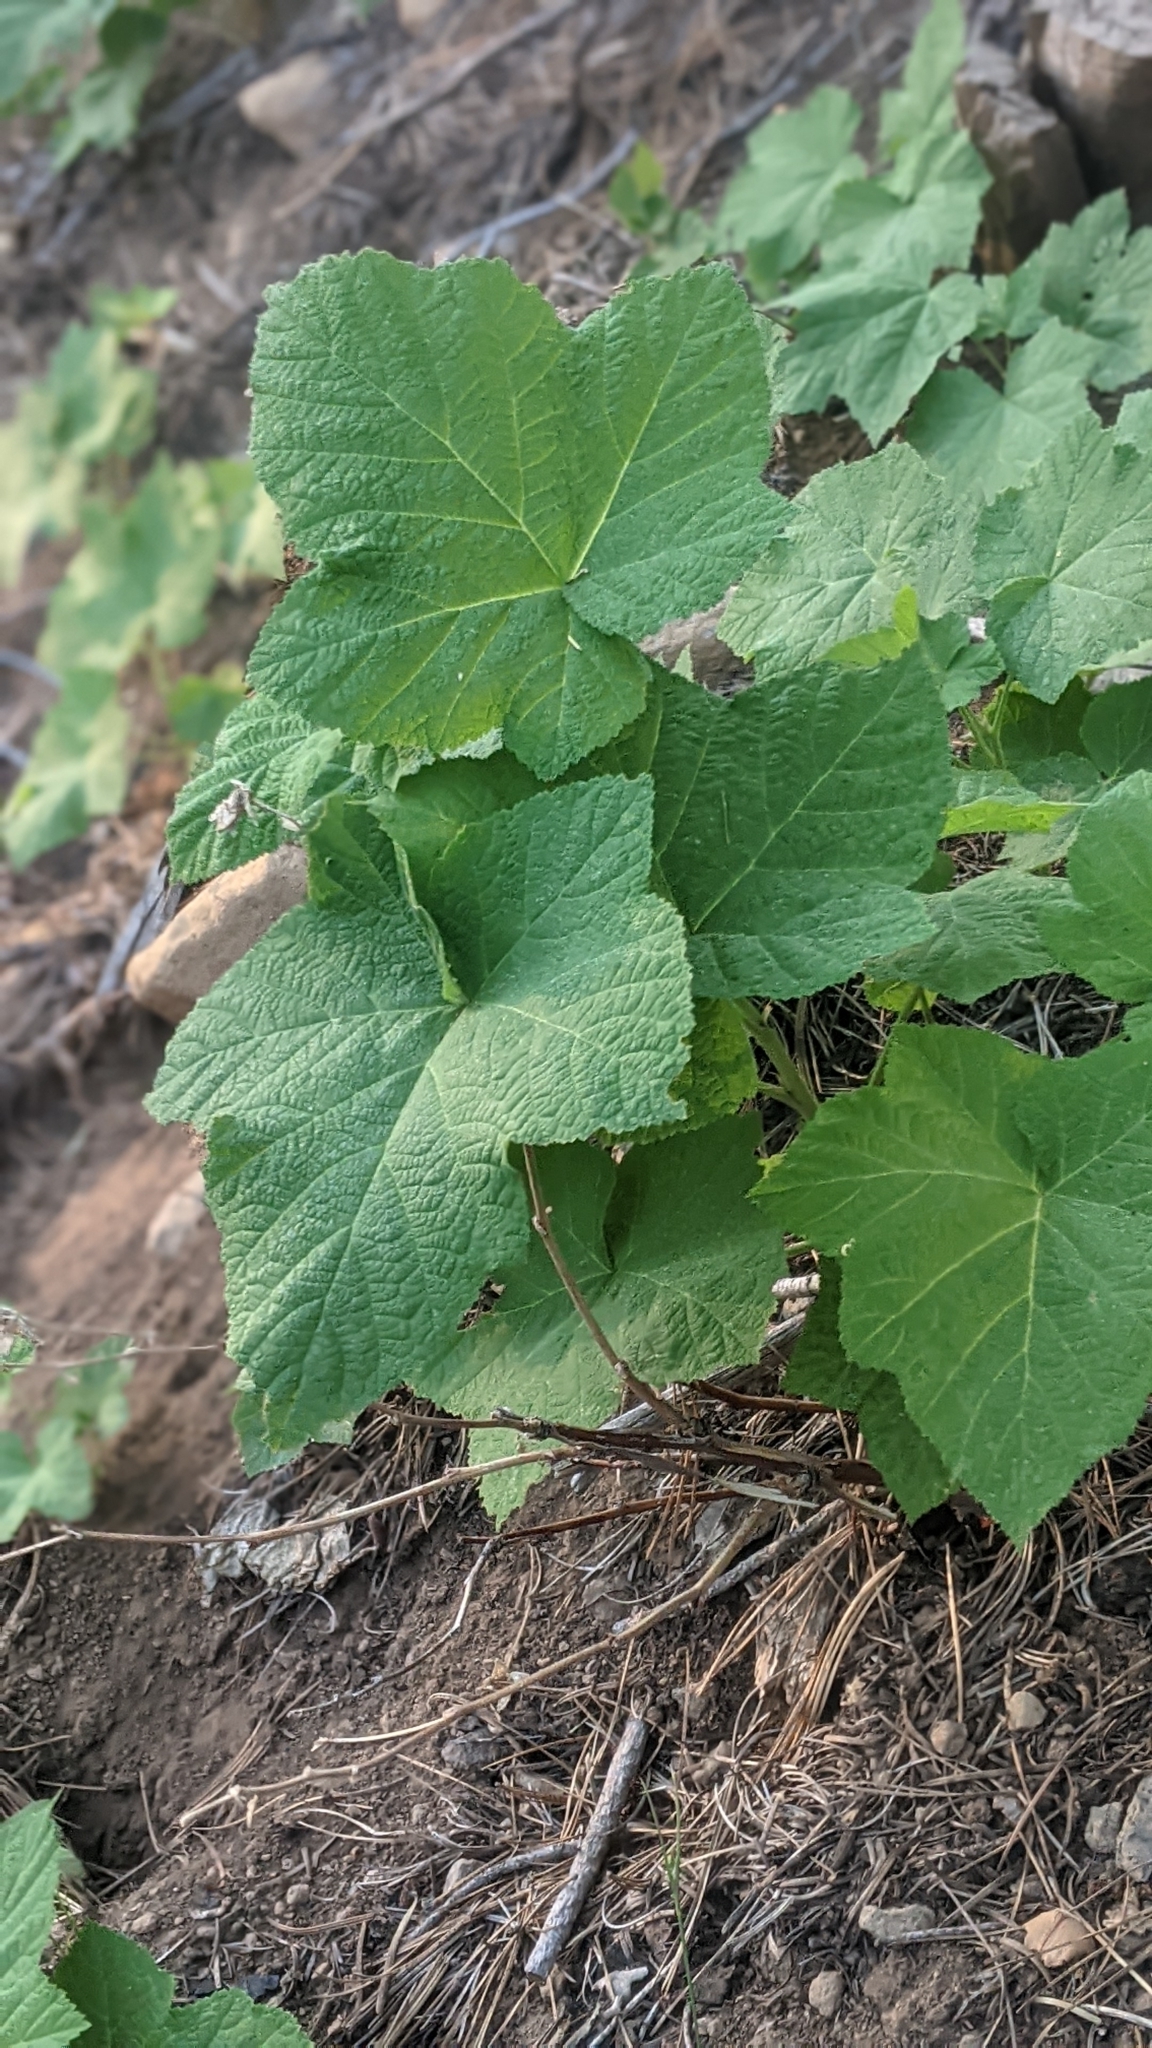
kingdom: Plantae
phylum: Tracheophyta
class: Magnoliopsida
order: Rosales
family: Rosaceae
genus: Rubus
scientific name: Rubus parviflorus
